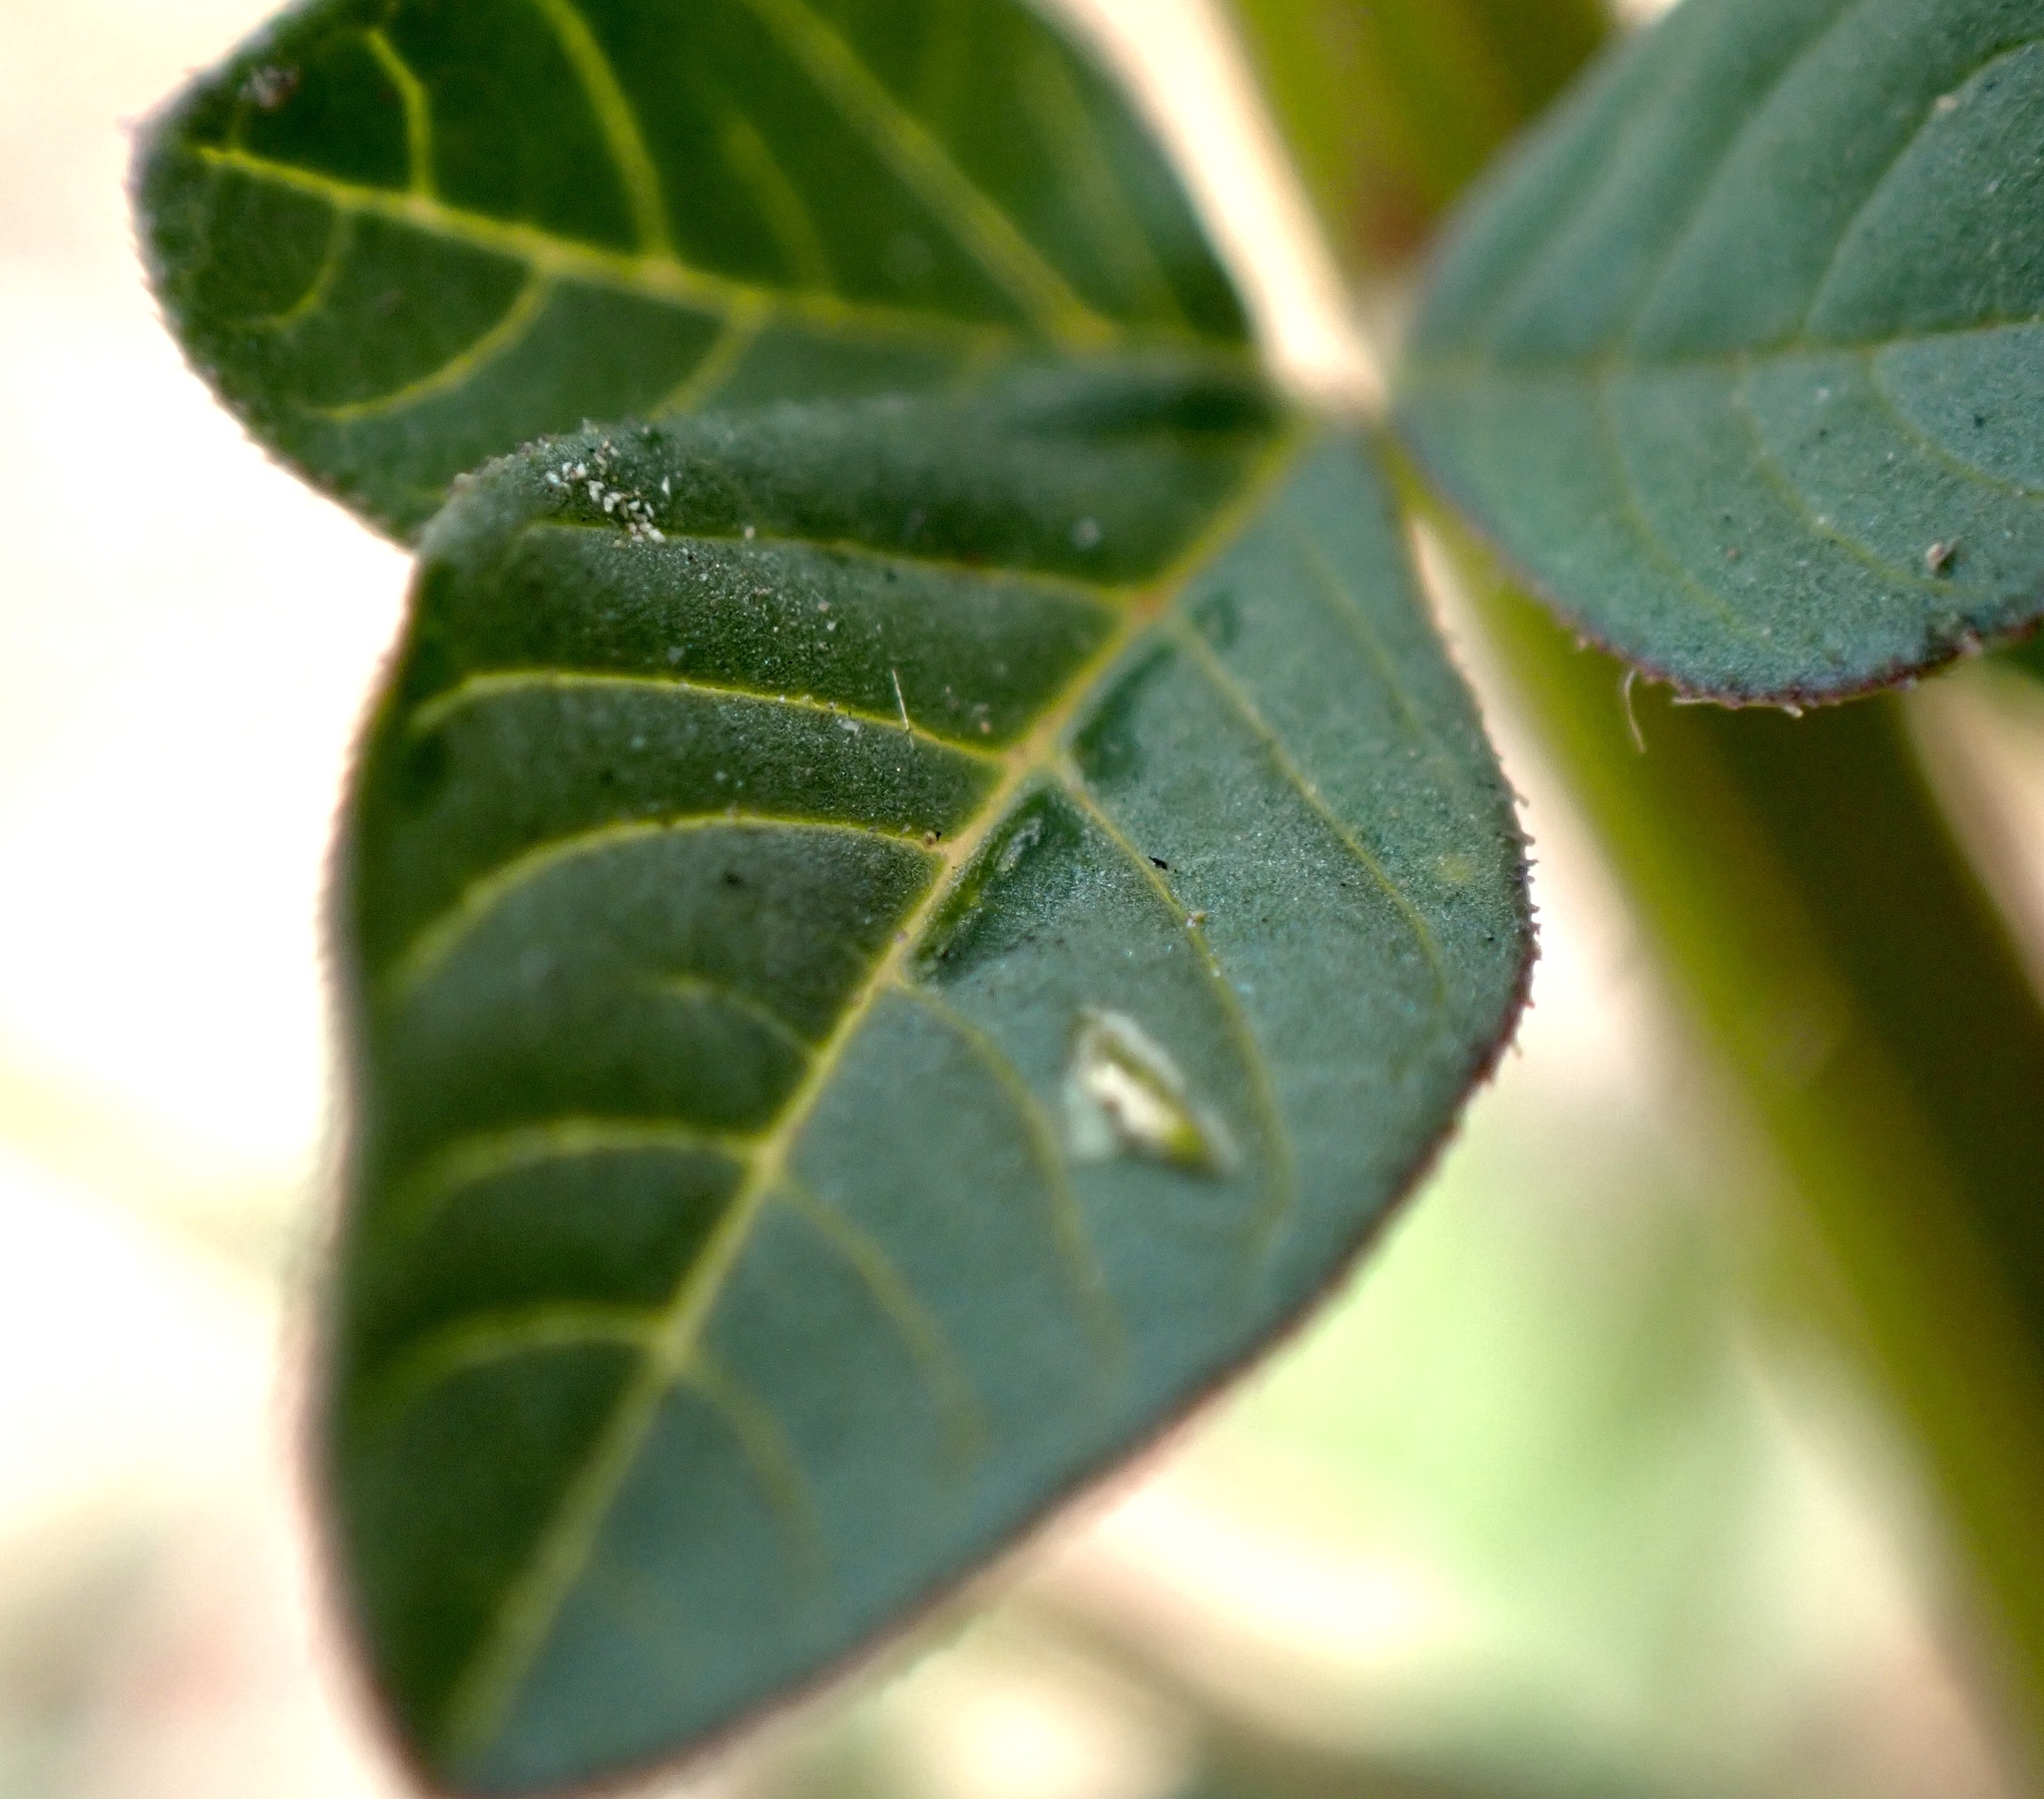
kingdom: Plantae
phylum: Tracheophyta
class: Magnoliopsida
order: Brassicales
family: Cleomaceae
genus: Sieruela
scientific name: Sieruela rutidosperma
